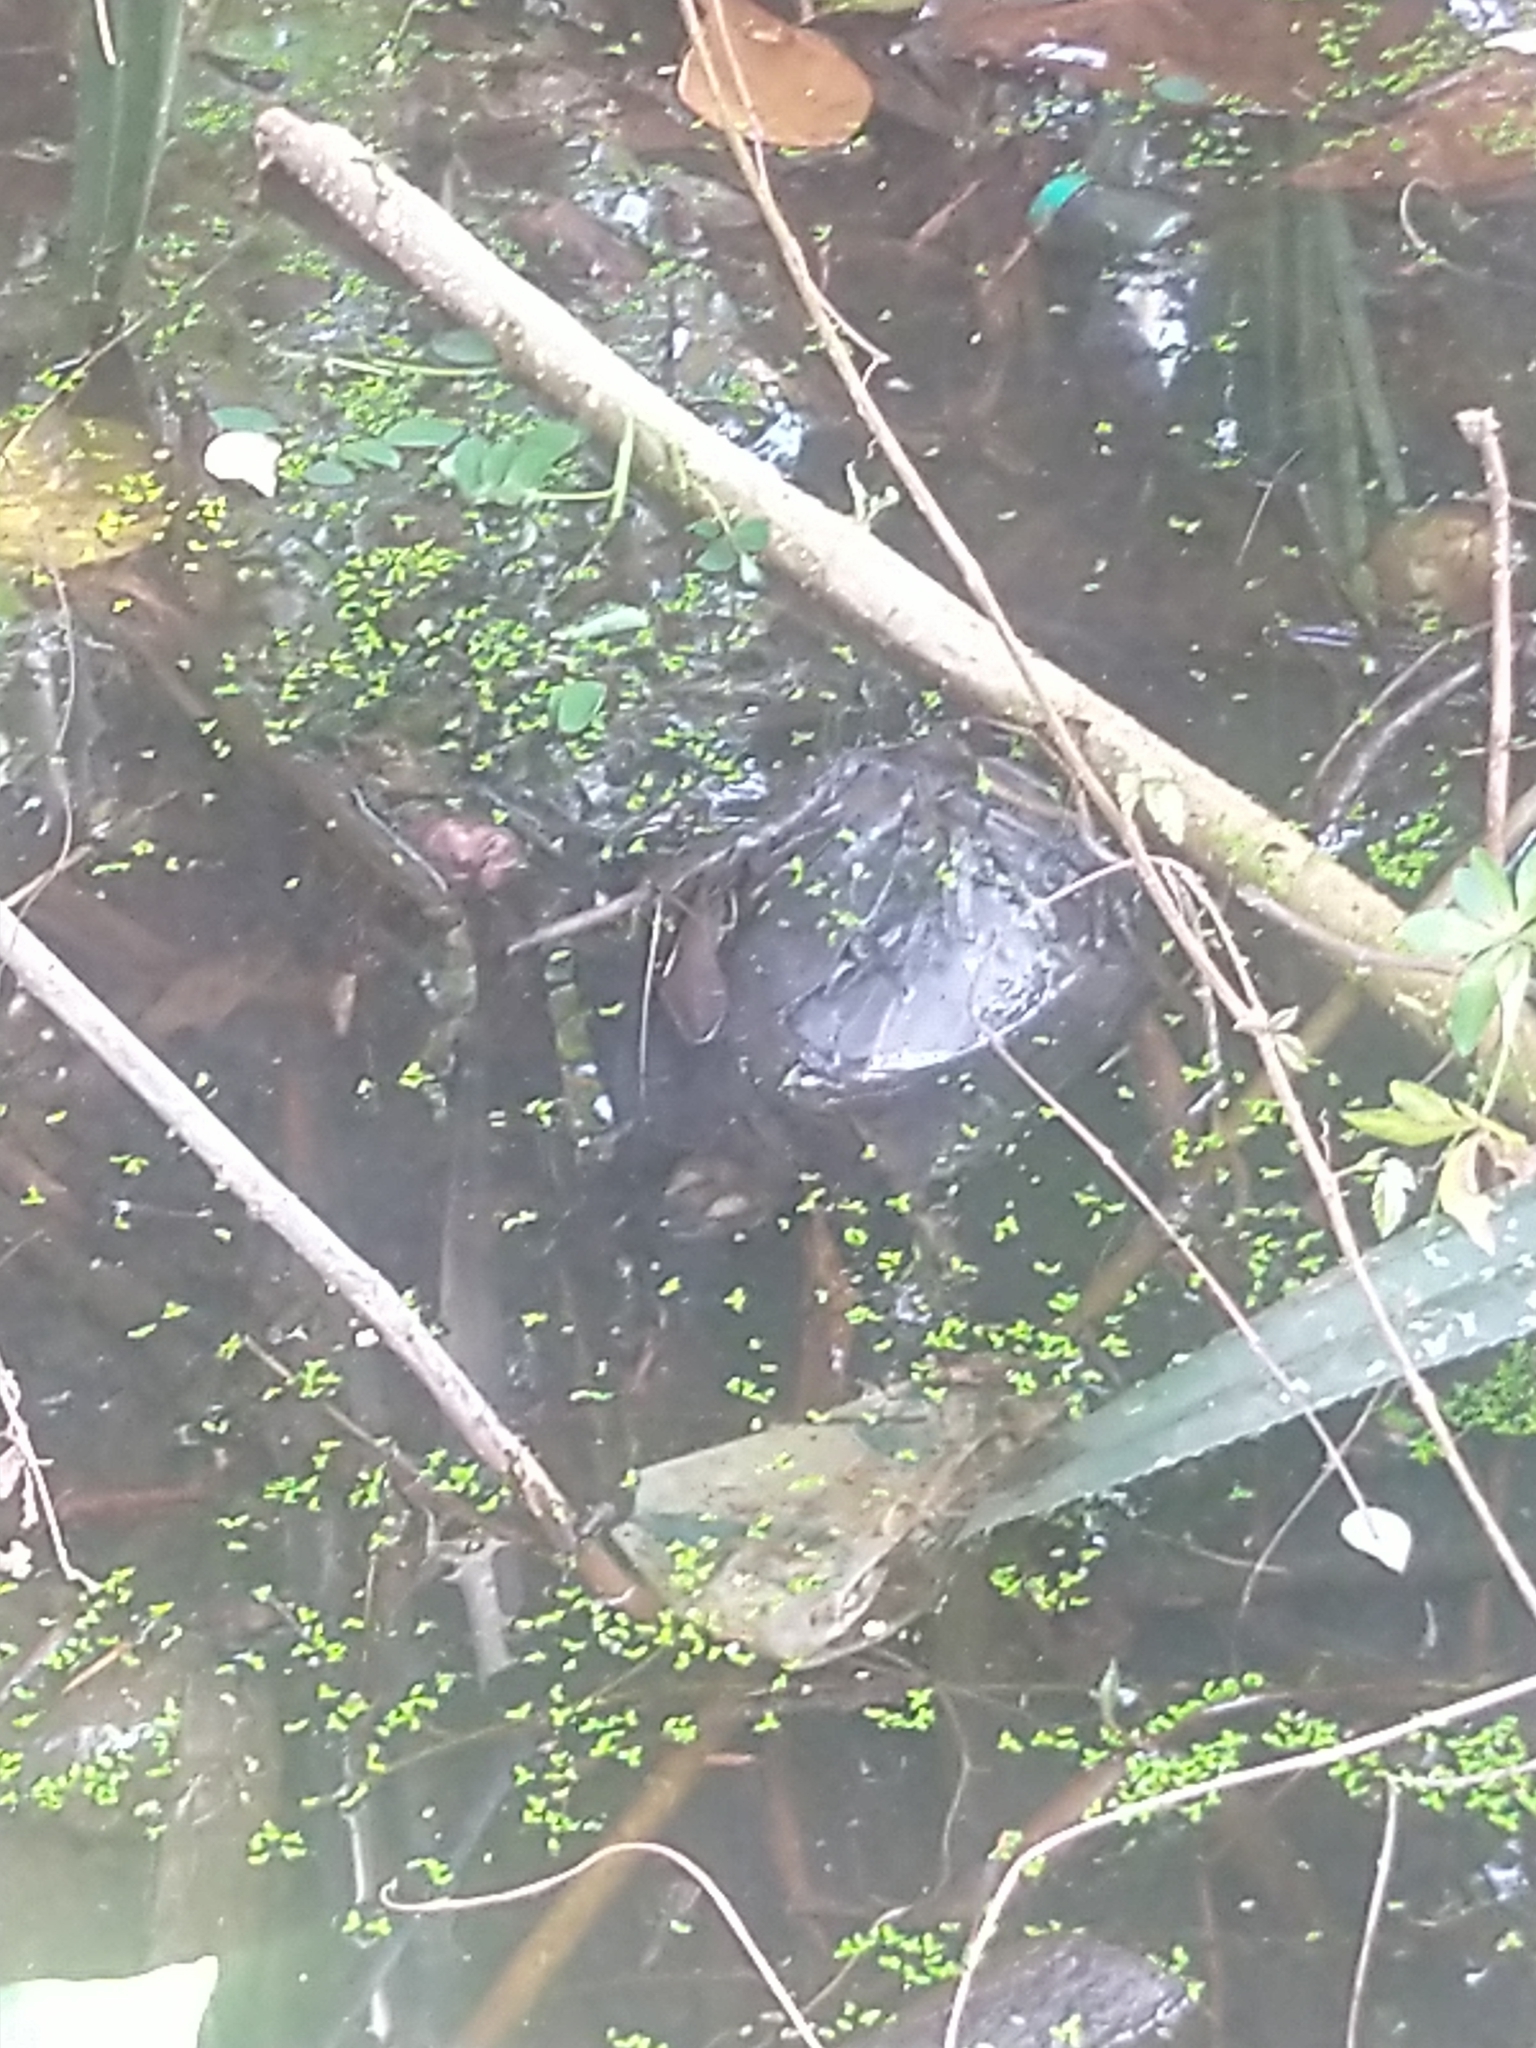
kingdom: Animalia
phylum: Chordata
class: Testudines
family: Geoemydidae
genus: Melanochelys
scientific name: Melanochelys trijuga
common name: Indian black turtle
